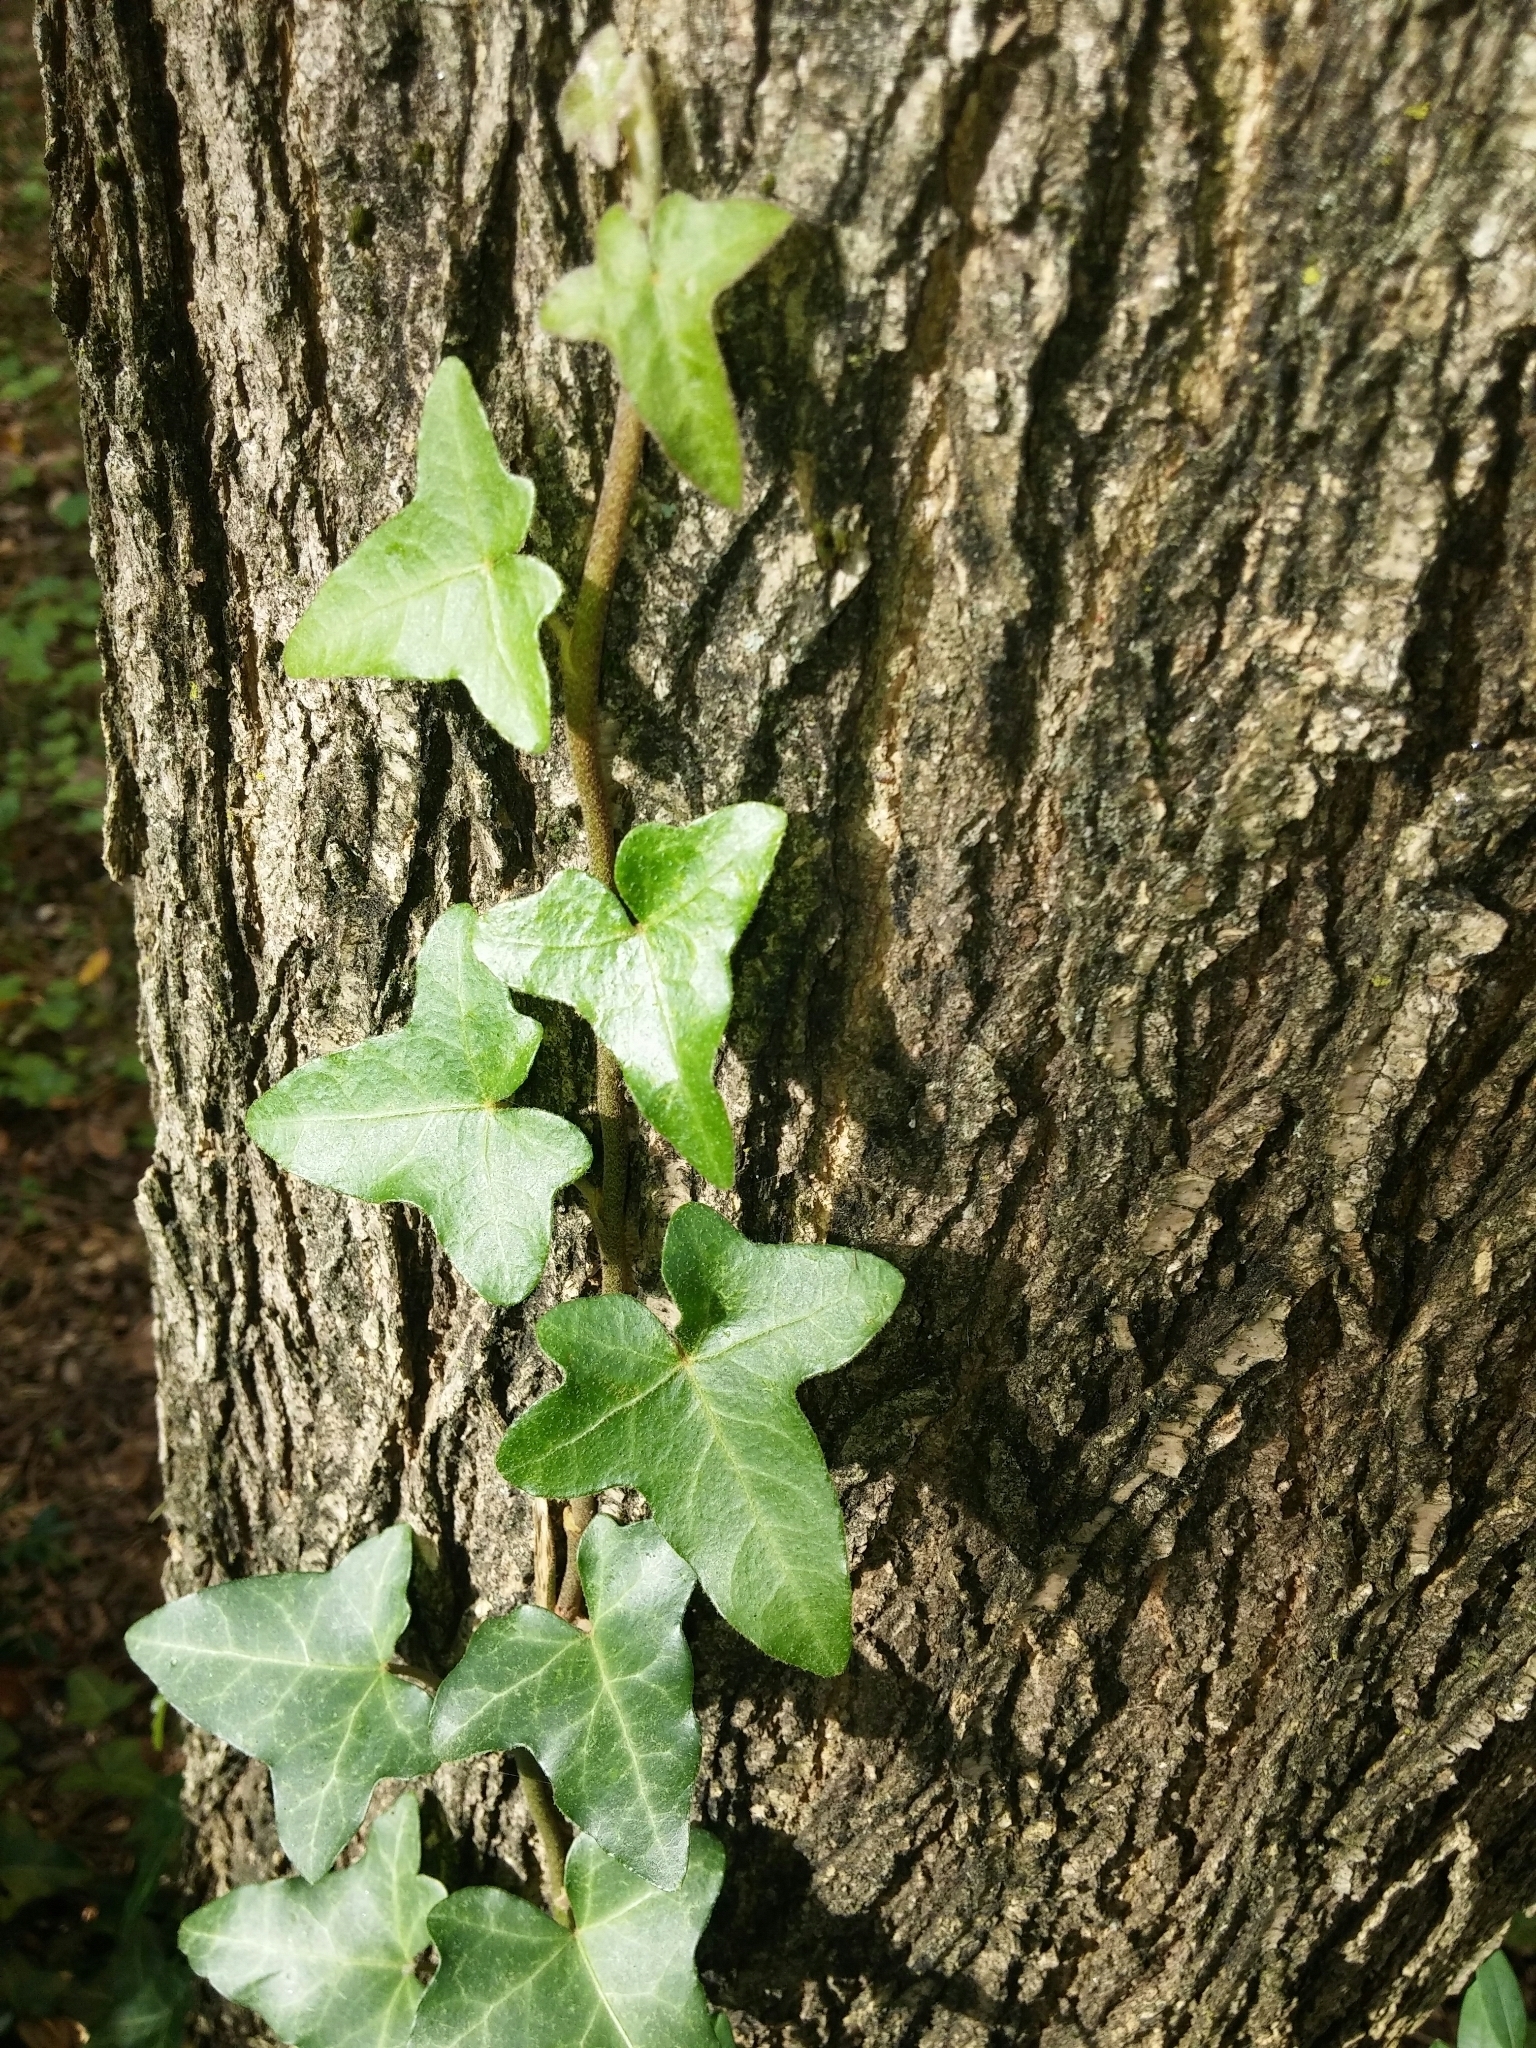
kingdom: Plantae
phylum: Tracheophyta
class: Magnoliopsida
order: Apiales
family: Araliaceae
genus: Hedera
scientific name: Hedera helix
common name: Ivy
